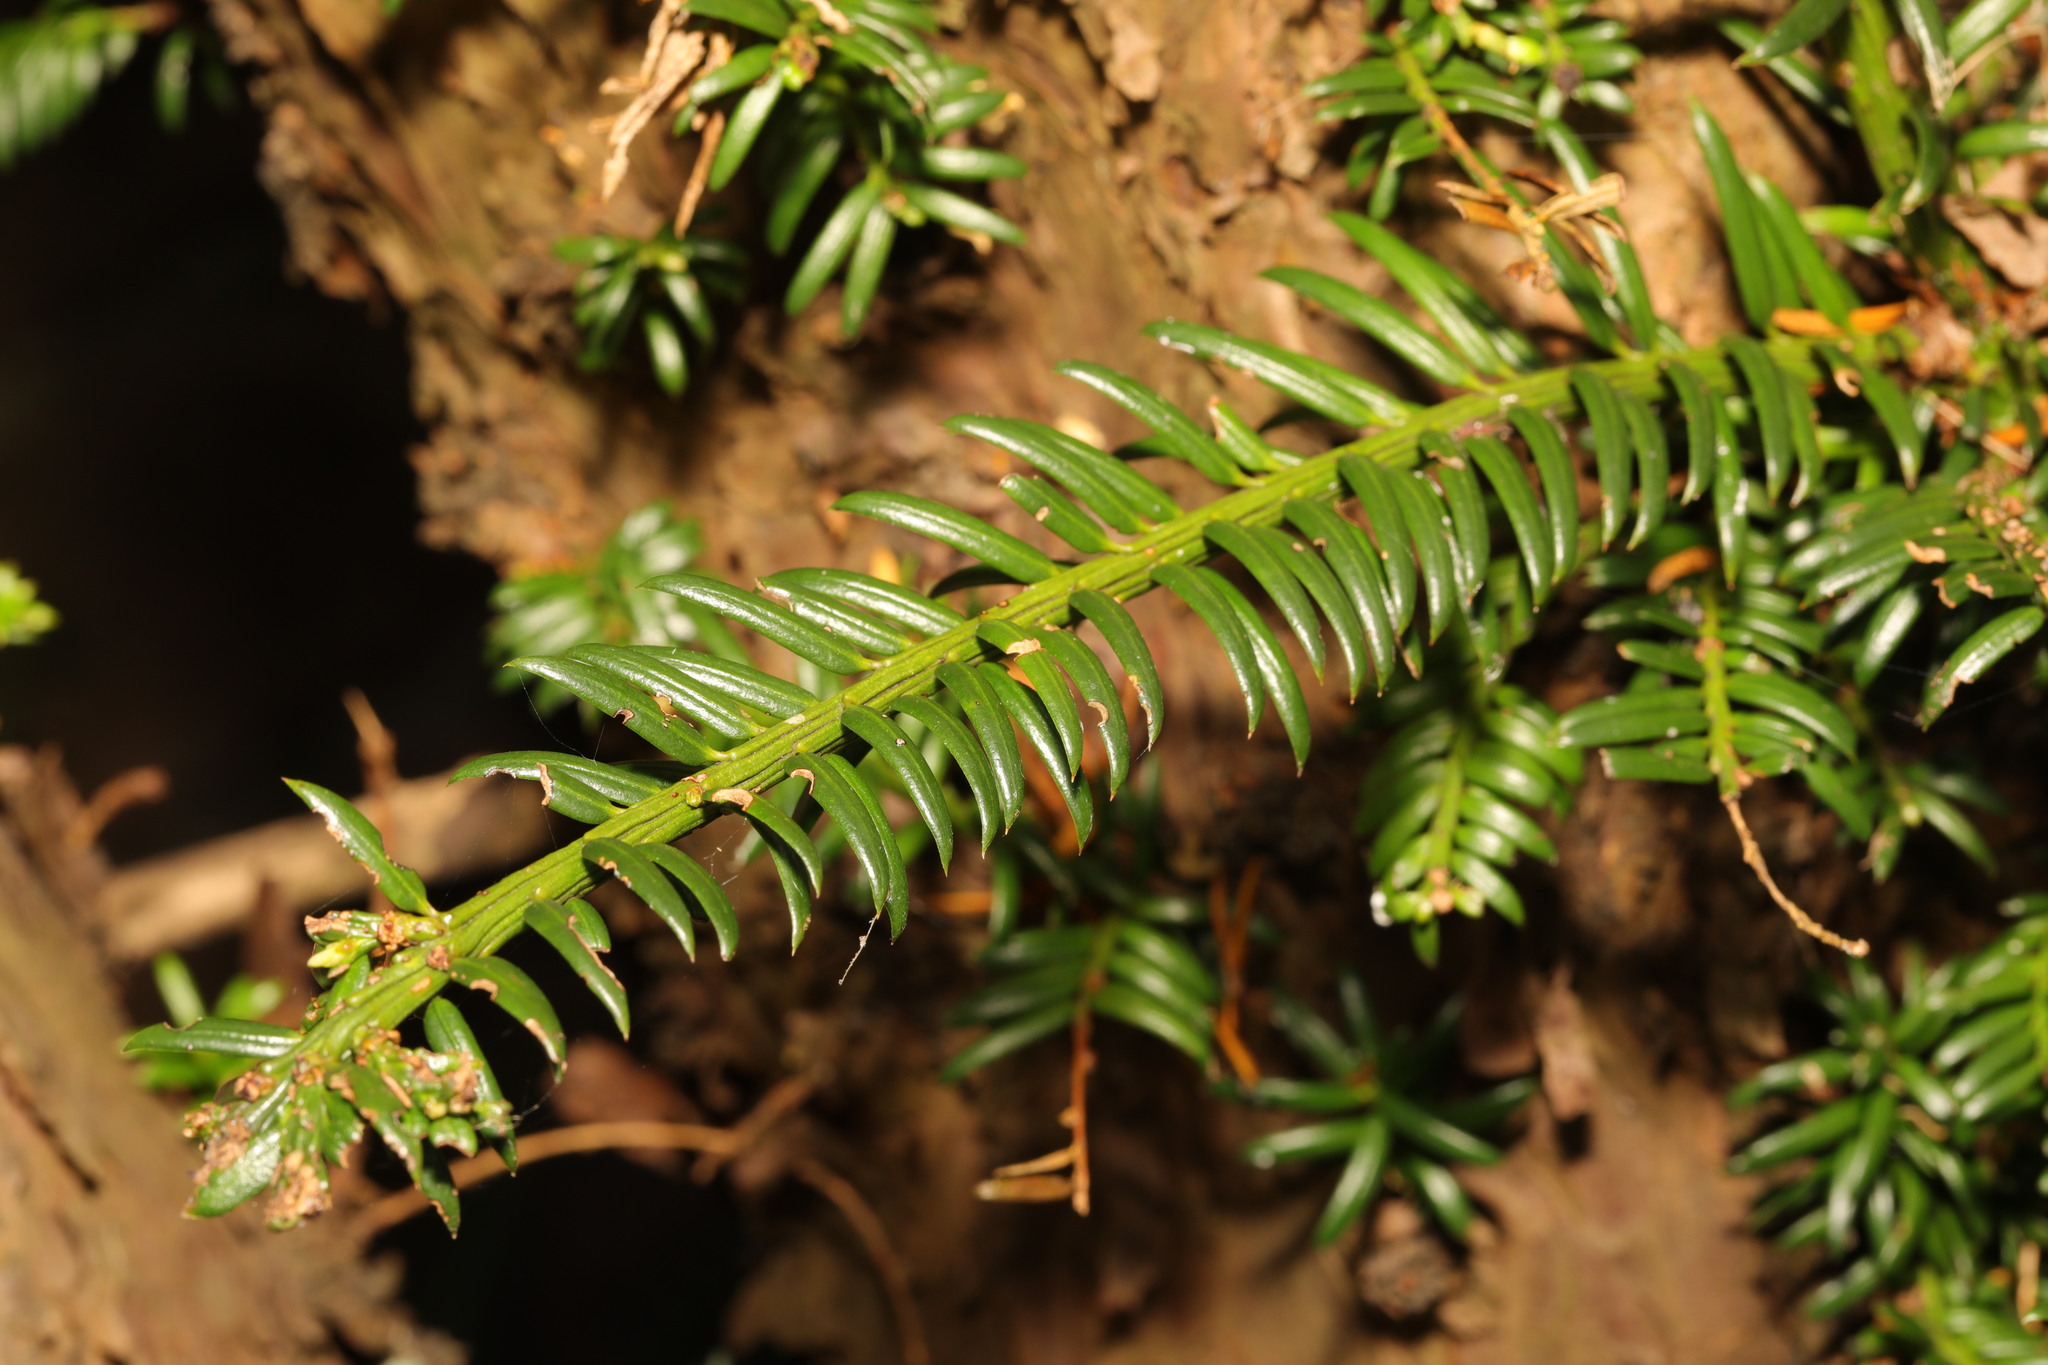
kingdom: Plantae
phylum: Tracheophyta
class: Pinopsida
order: Pinales
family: Taxaceae
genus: Taxus
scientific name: Taxus baccata
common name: Yew
